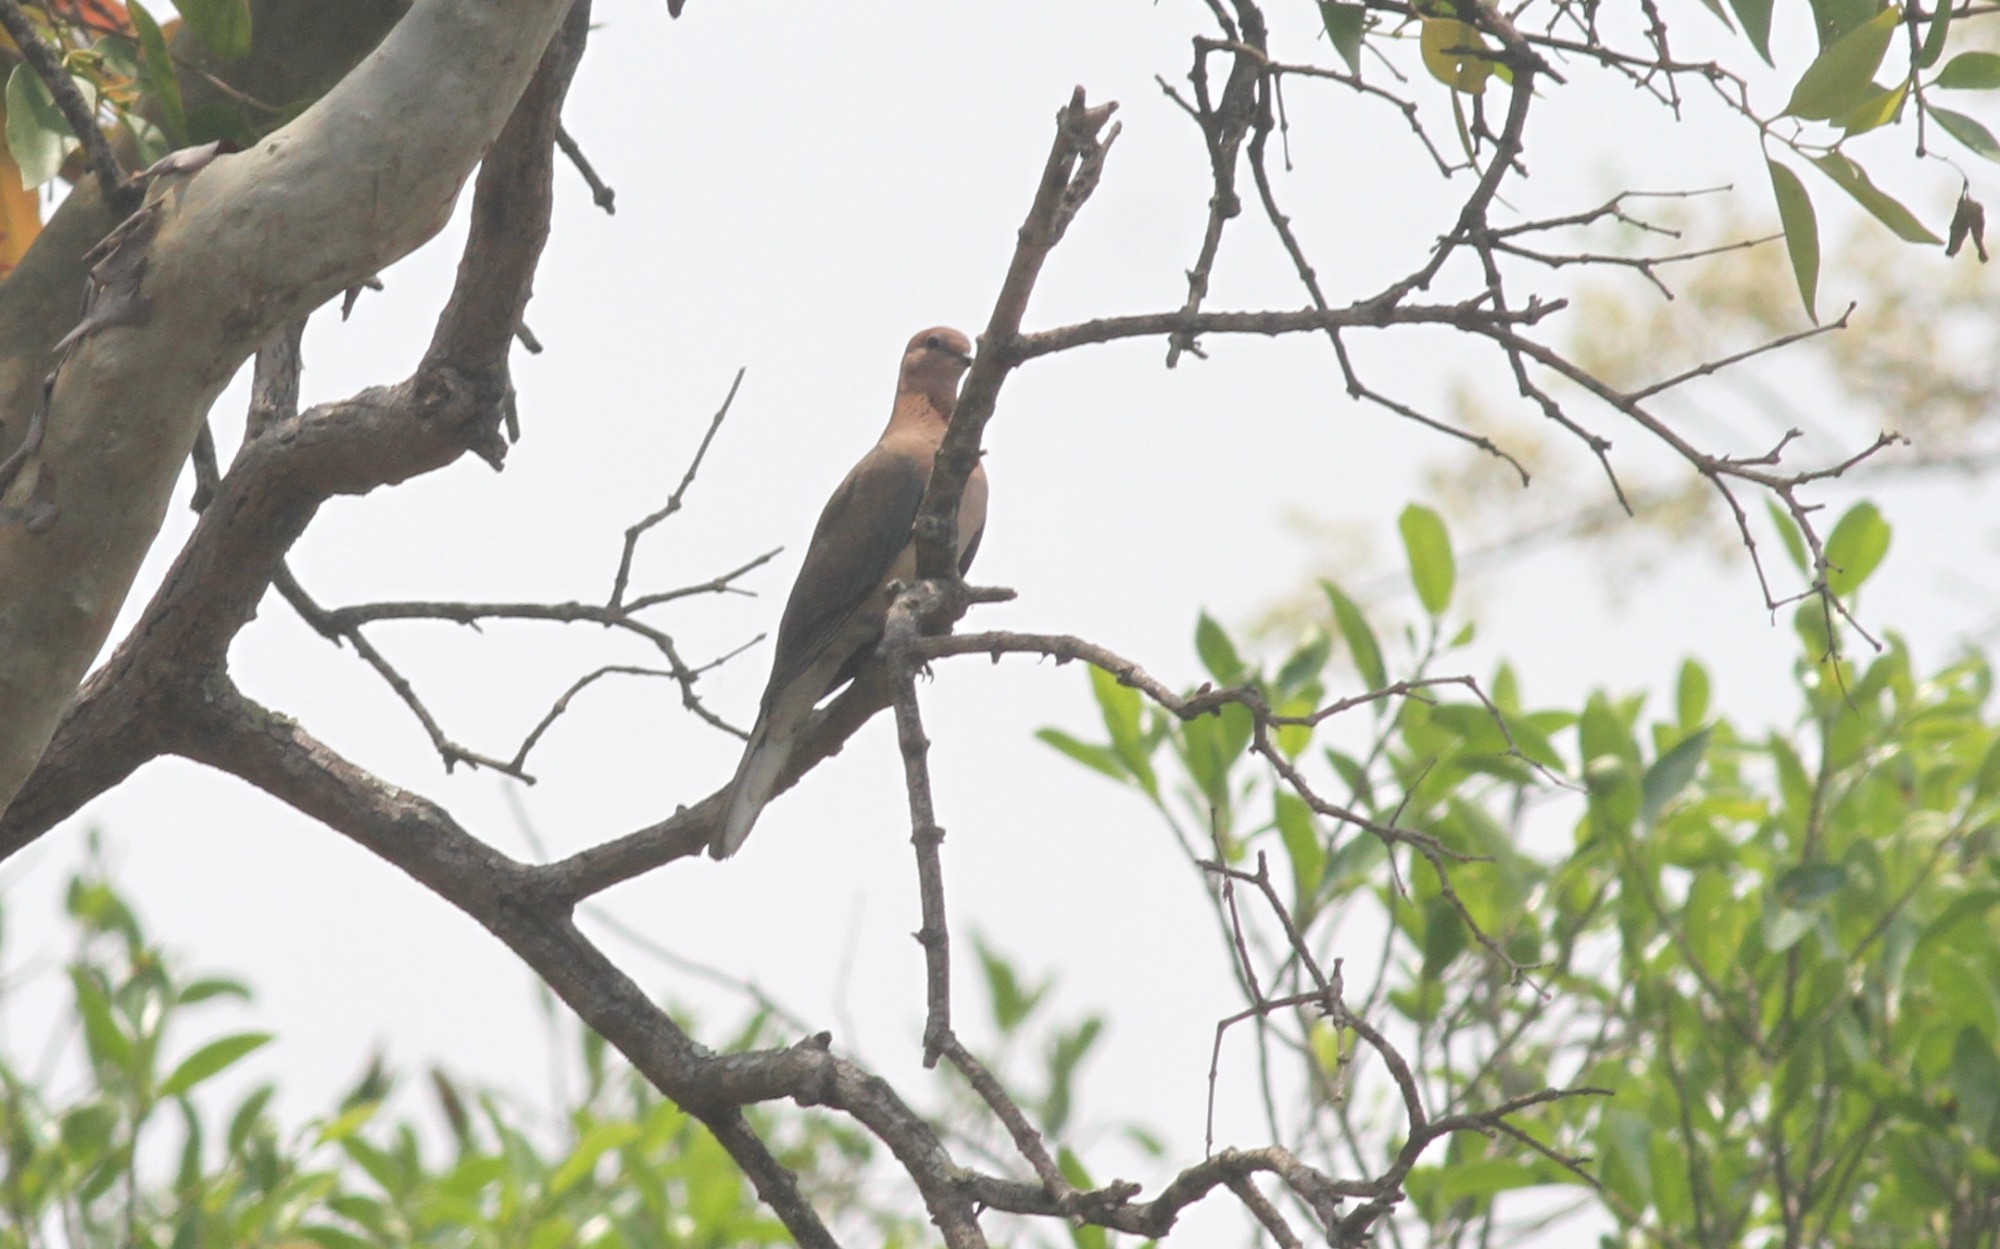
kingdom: Animalia
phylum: Chordata
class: Aves
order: Columbiformes
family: Columbidae
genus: Spilopelia
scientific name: Spilopelia senegalensis
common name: Laughing dove
